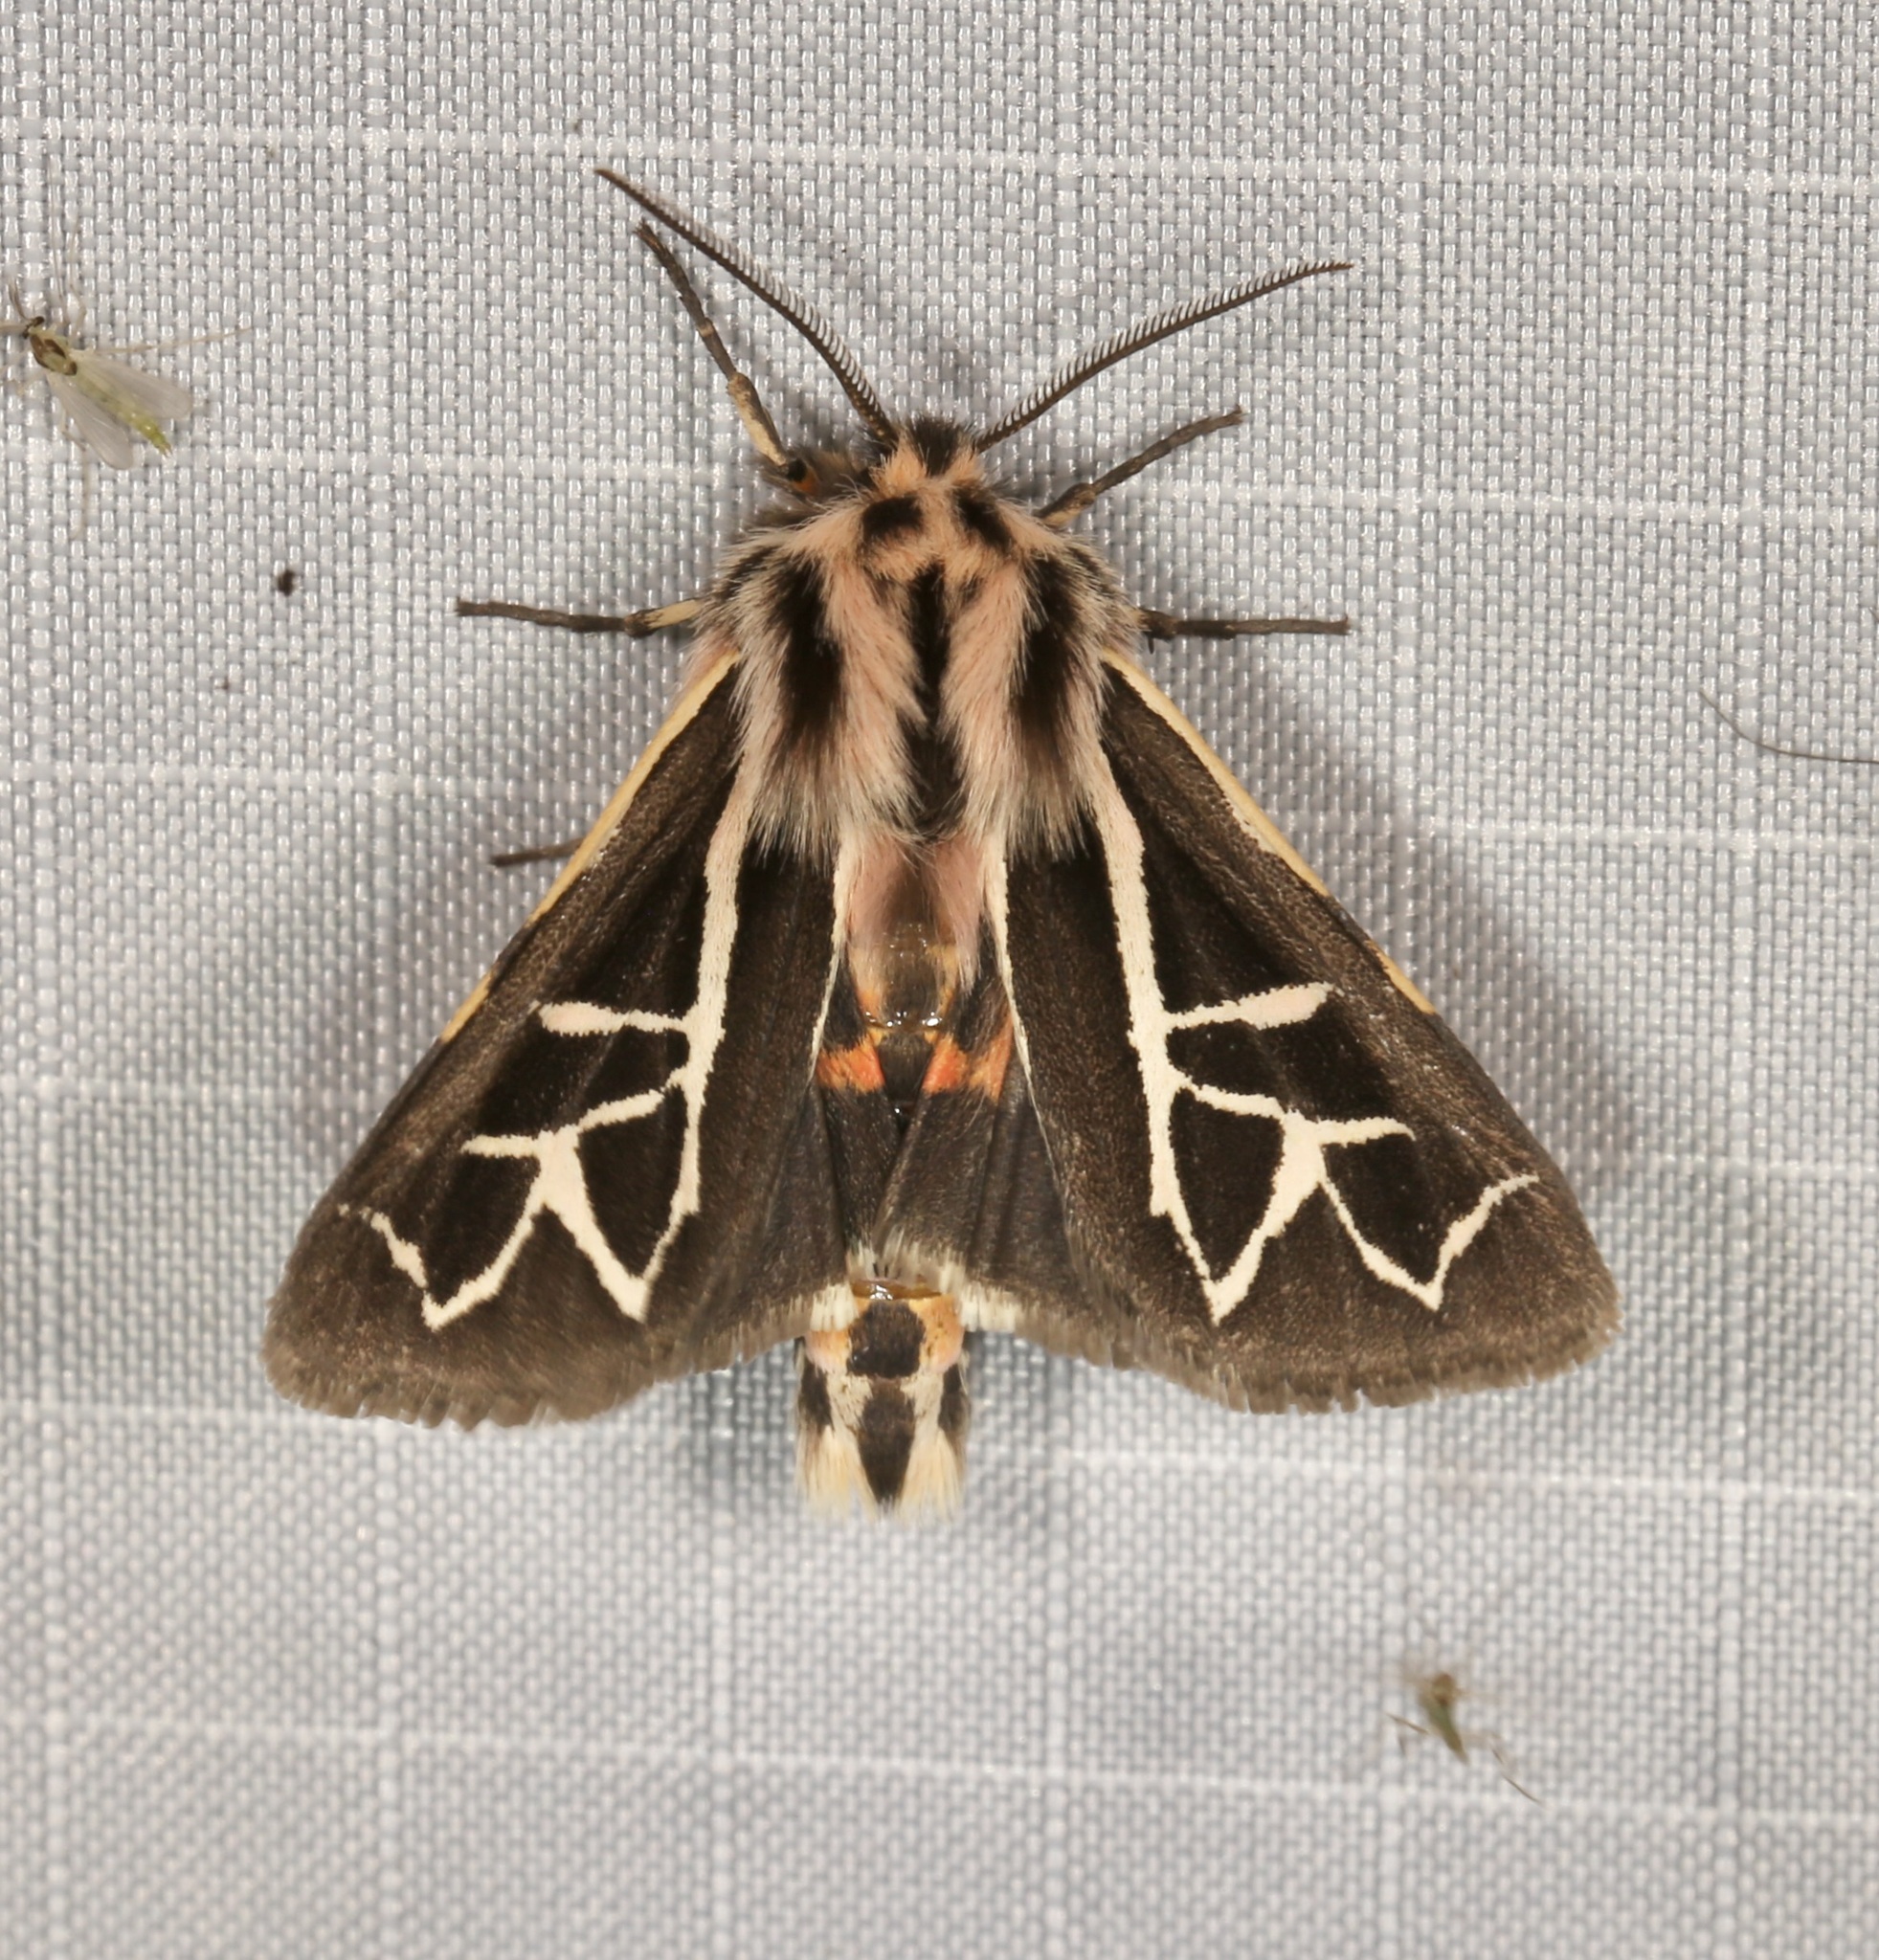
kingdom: Animalia
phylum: Arthropoda
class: Insecta
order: Lepidoptera
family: Erebidae
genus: Apantesis
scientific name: Apantesis
